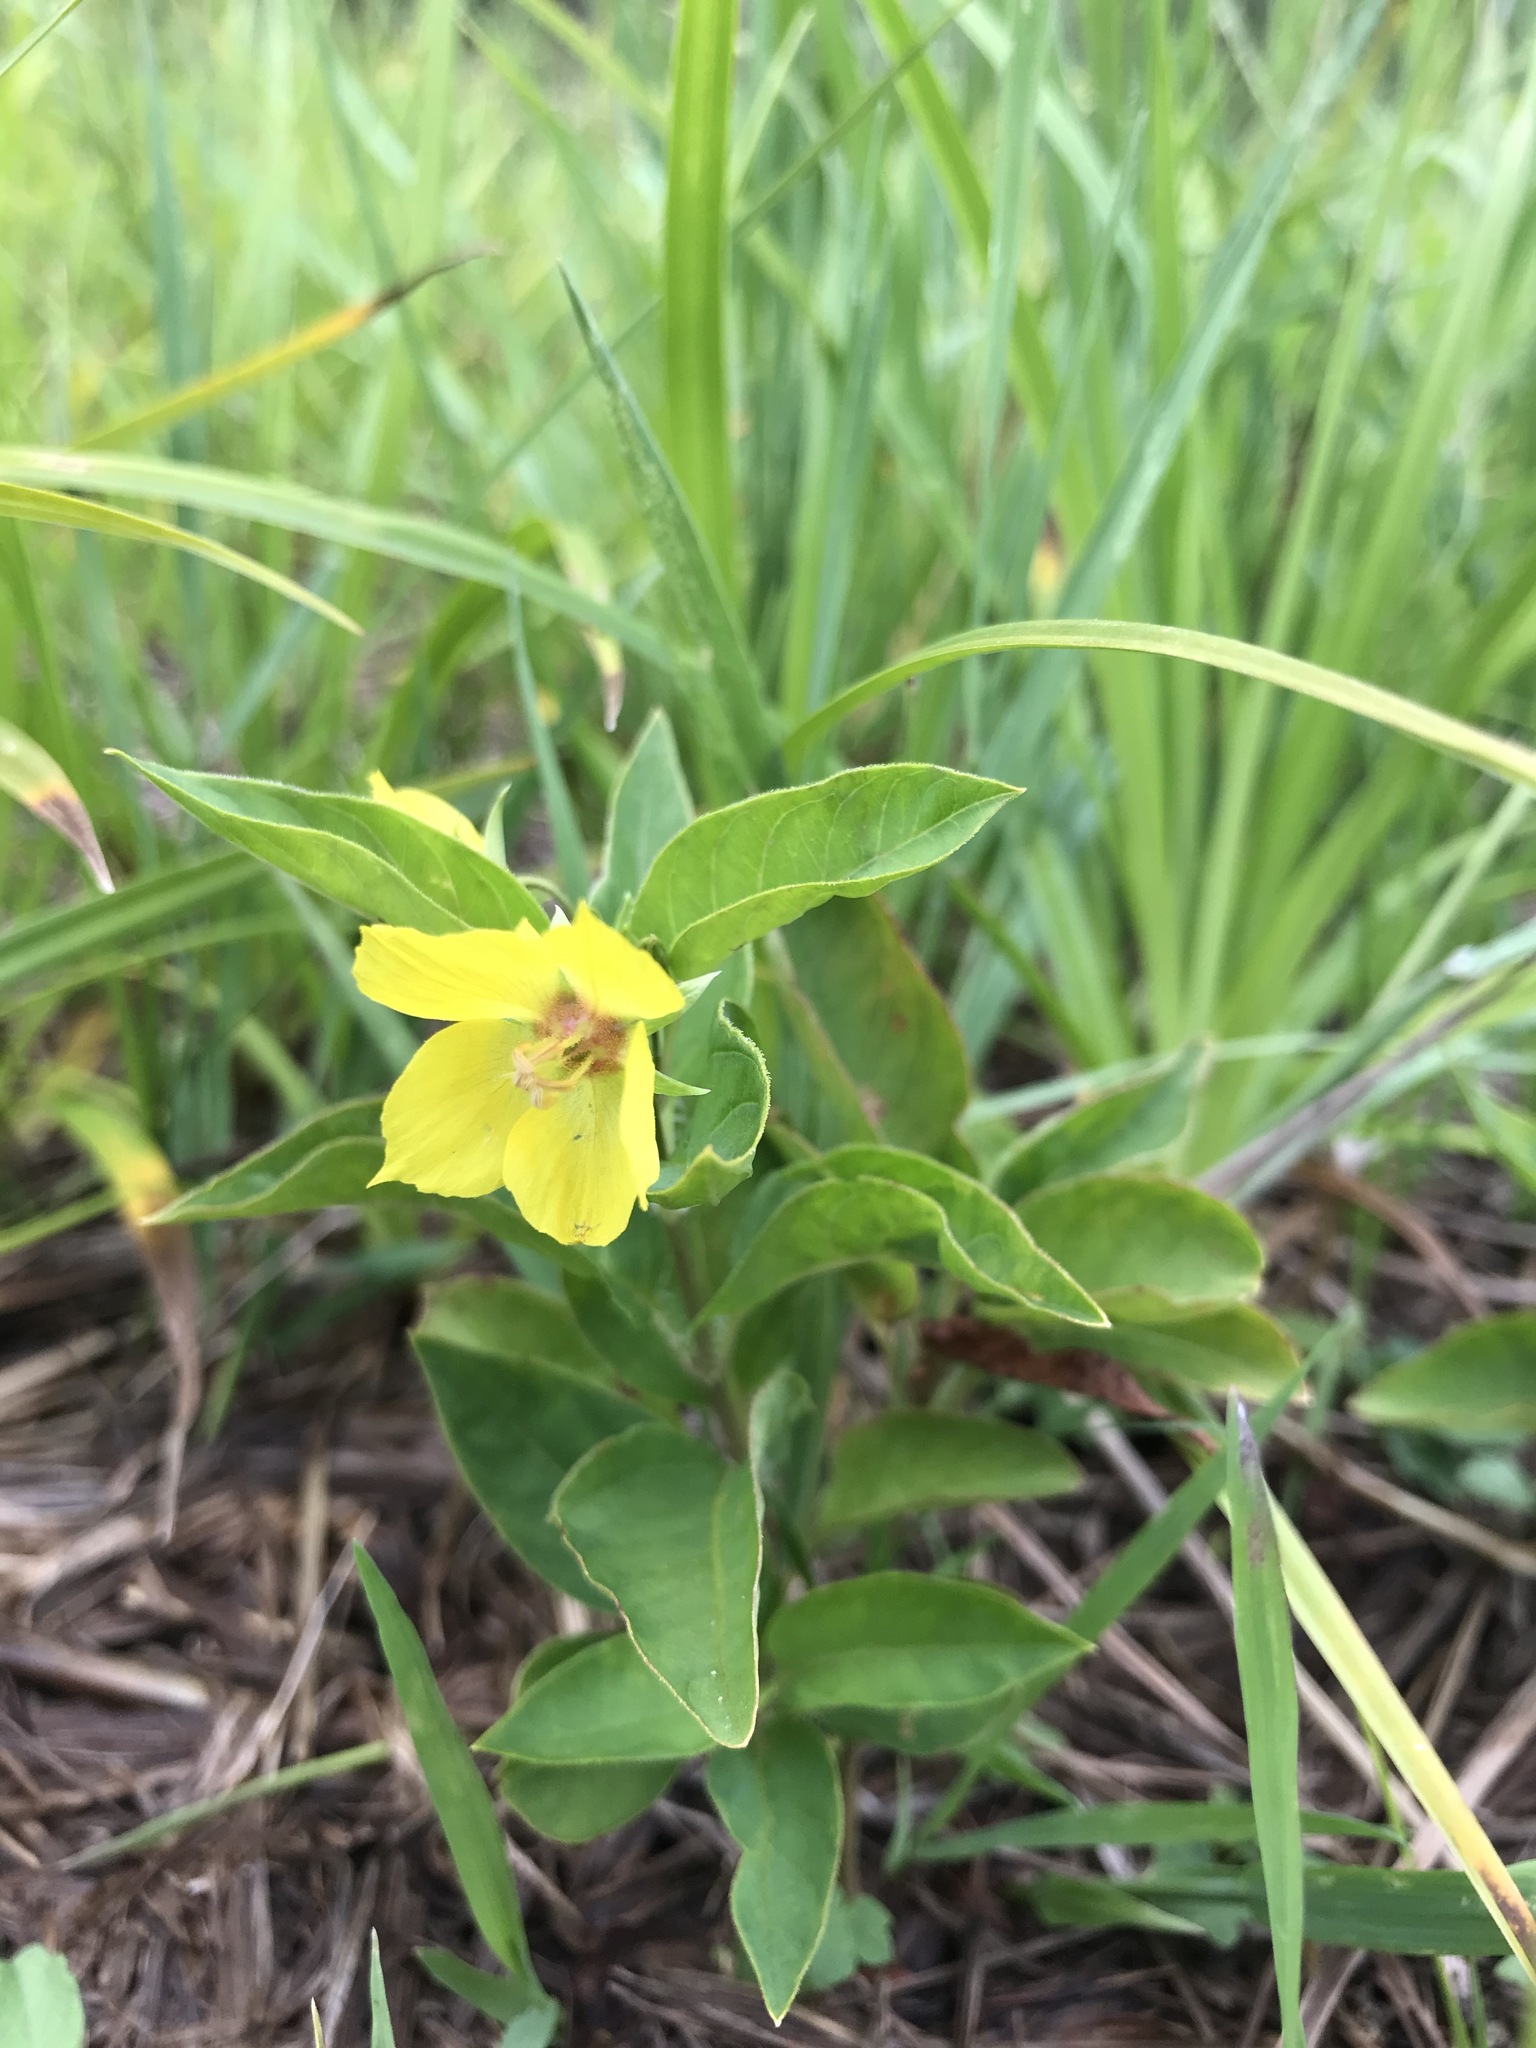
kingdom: Plantae
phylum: Tracheophyta
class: Magnoliopsida
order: Ericales
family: Primulaceae
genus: Lysimachia
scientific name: Lysimachia ciliata
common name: Fringed loosestrife
